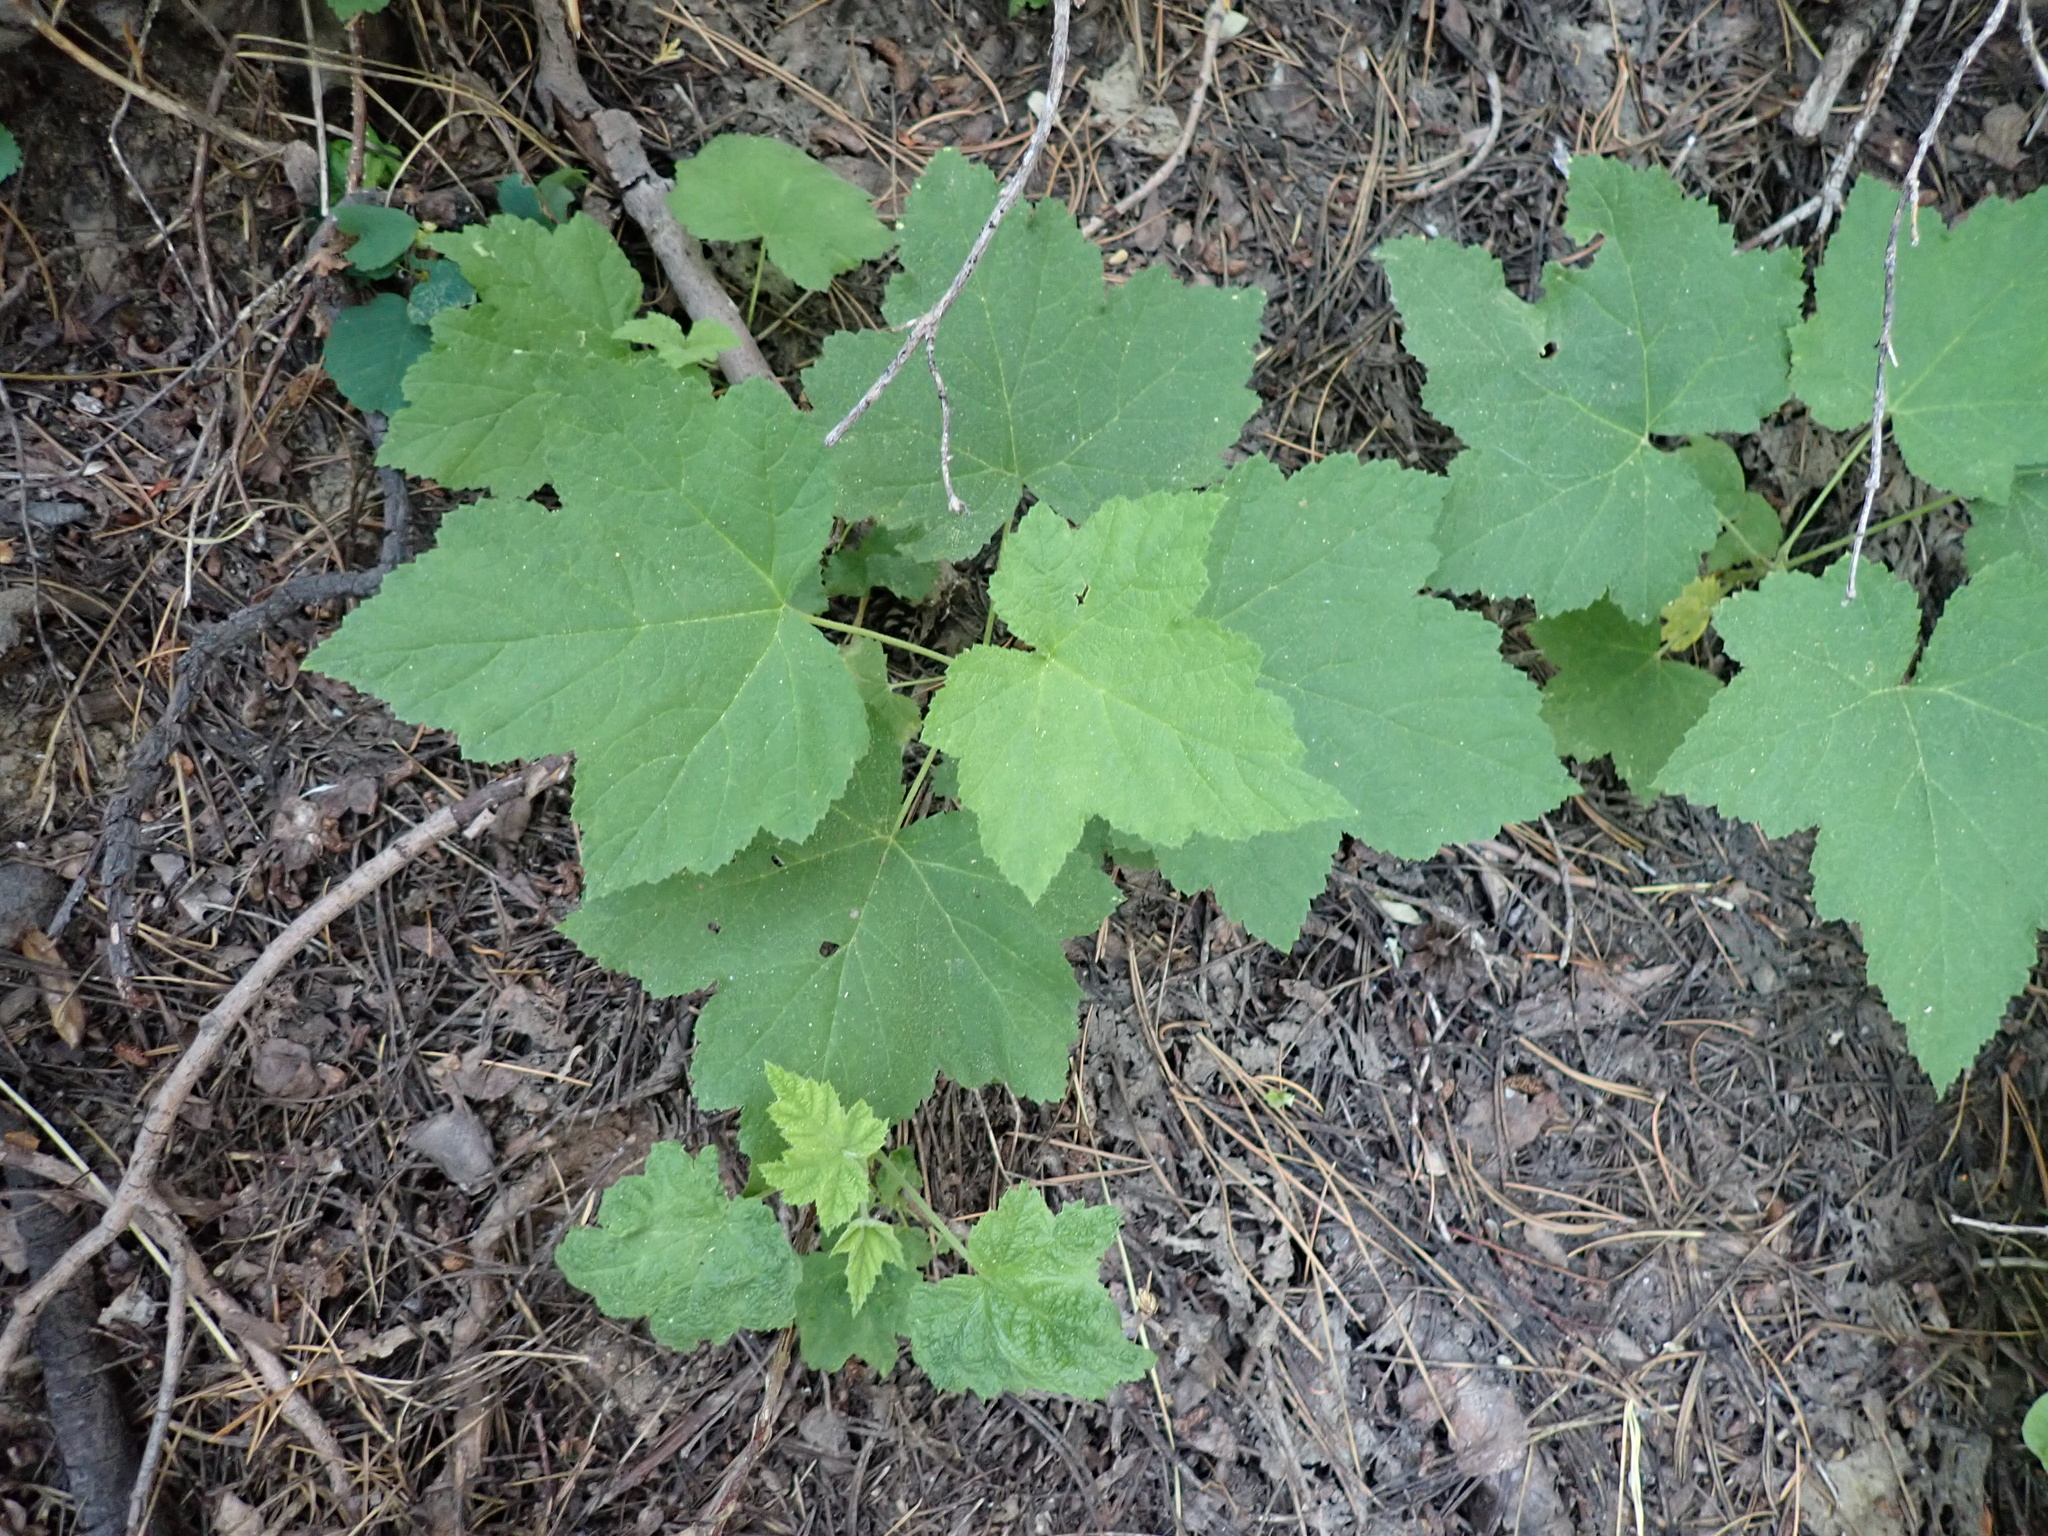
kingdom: Plantae
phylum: Tracheophyta
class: Magnoliopsida
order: Rosales
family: Rosaceae
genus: Rubus
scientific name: Rubus parviflorus
